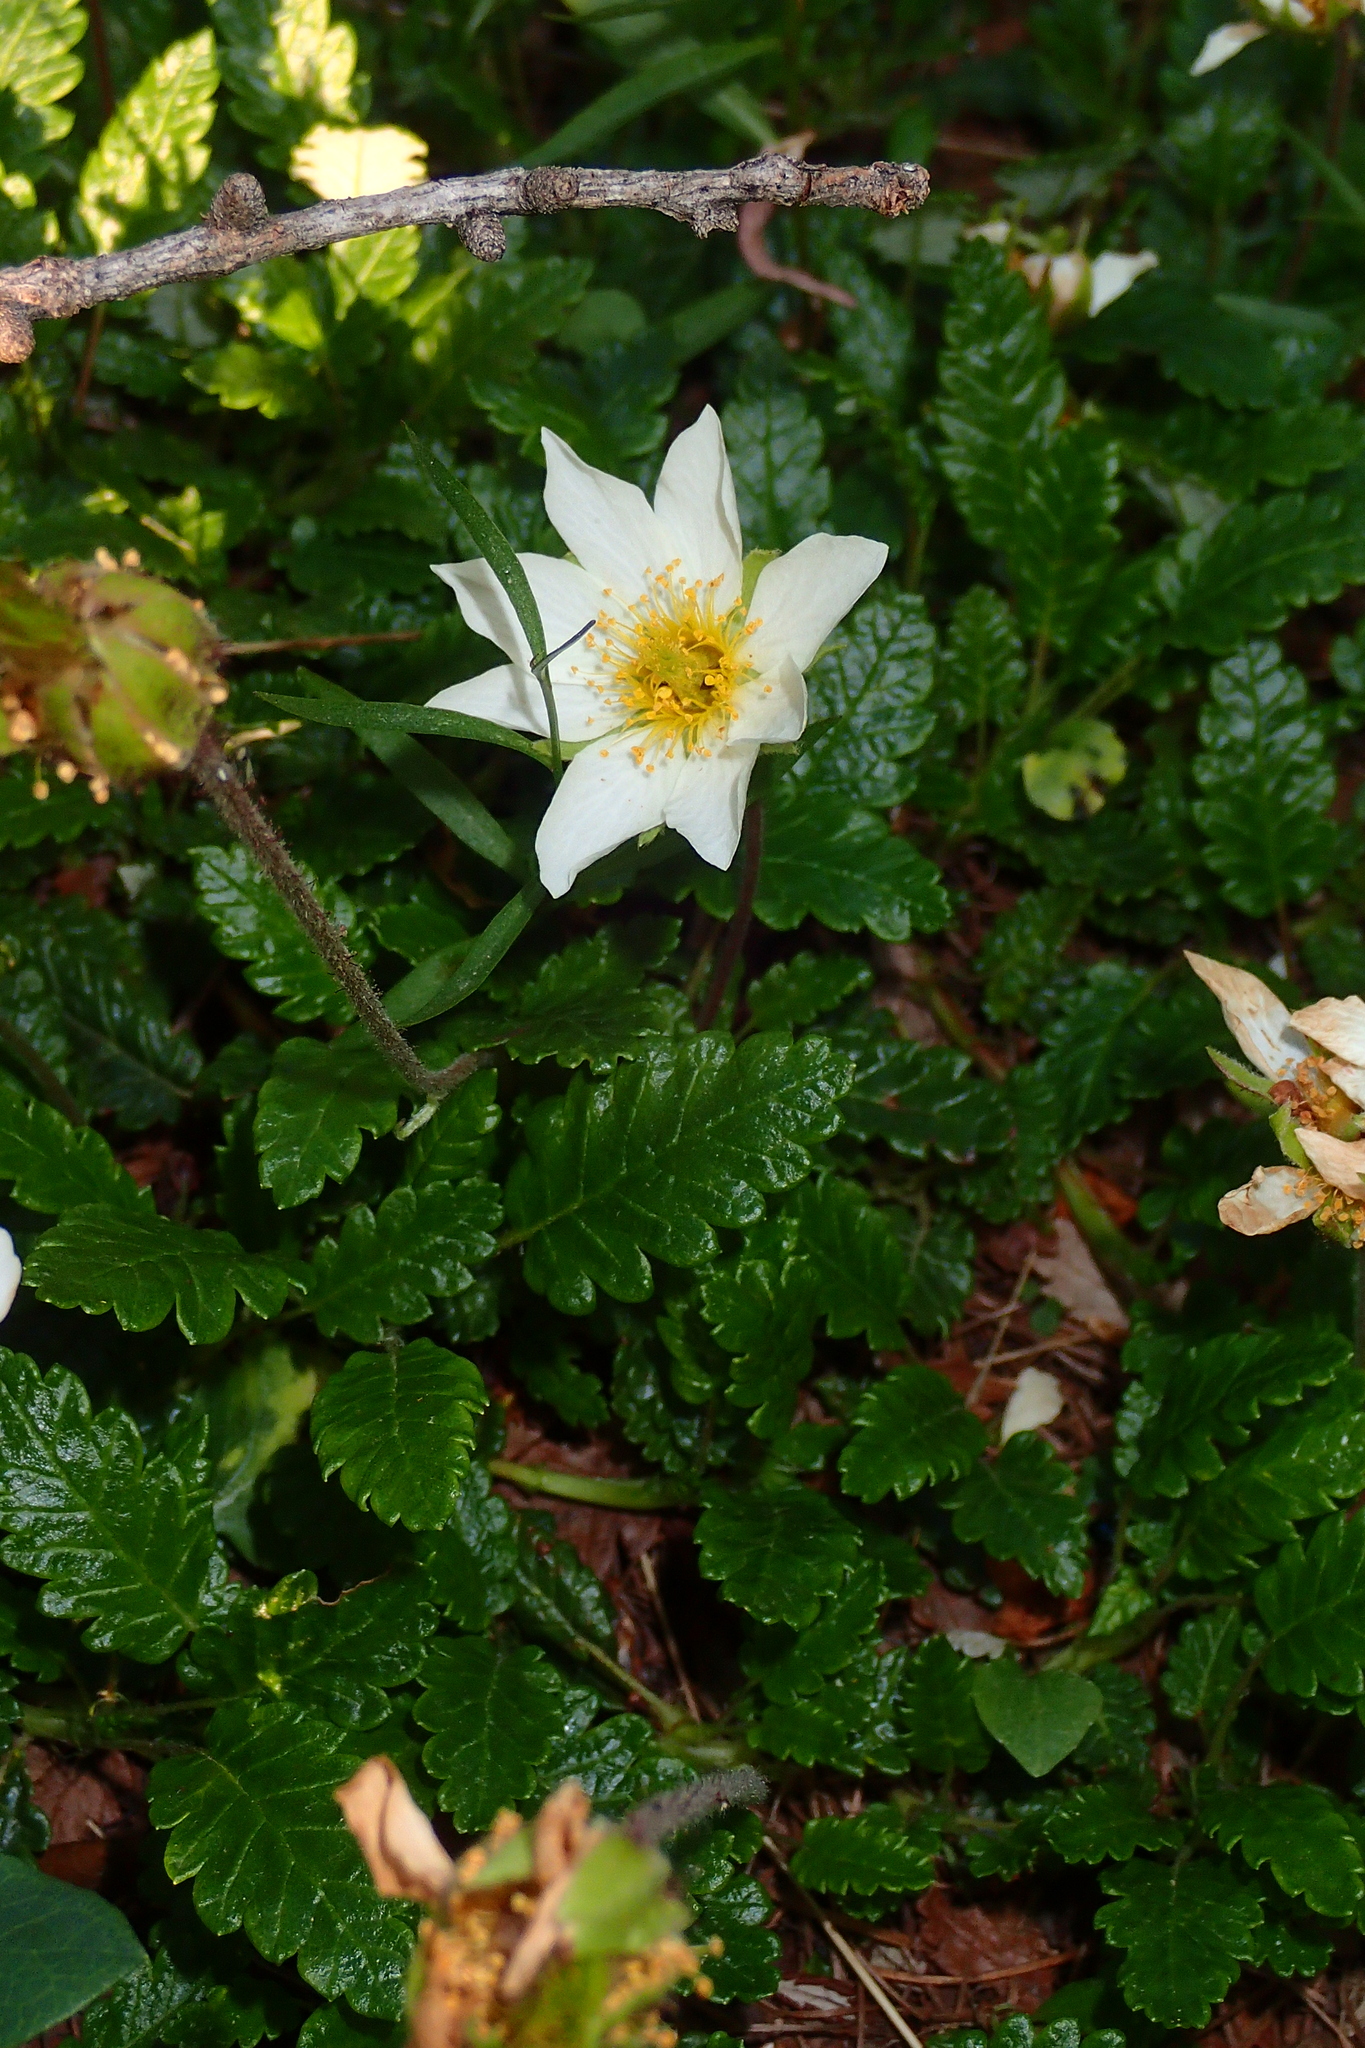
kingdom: Plantae
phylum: Tracheophyta
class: Magnoliopsida
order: Rosales
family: Rosaceae
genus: Dryas
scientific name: Dryas octopetala
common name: Eight-petal mountain-avens
